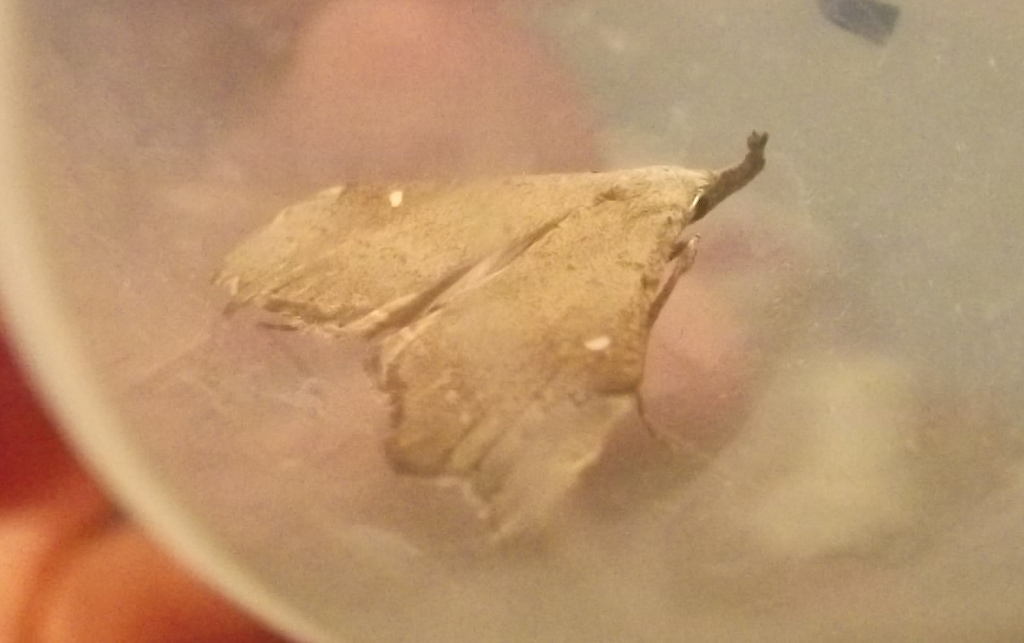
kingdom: Animalia
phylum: Arthropoda
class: Insecta
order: Lepidoptera
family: Erebidae
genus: Redectis
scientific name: Redectis vitrea
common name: White-spotted redectis
